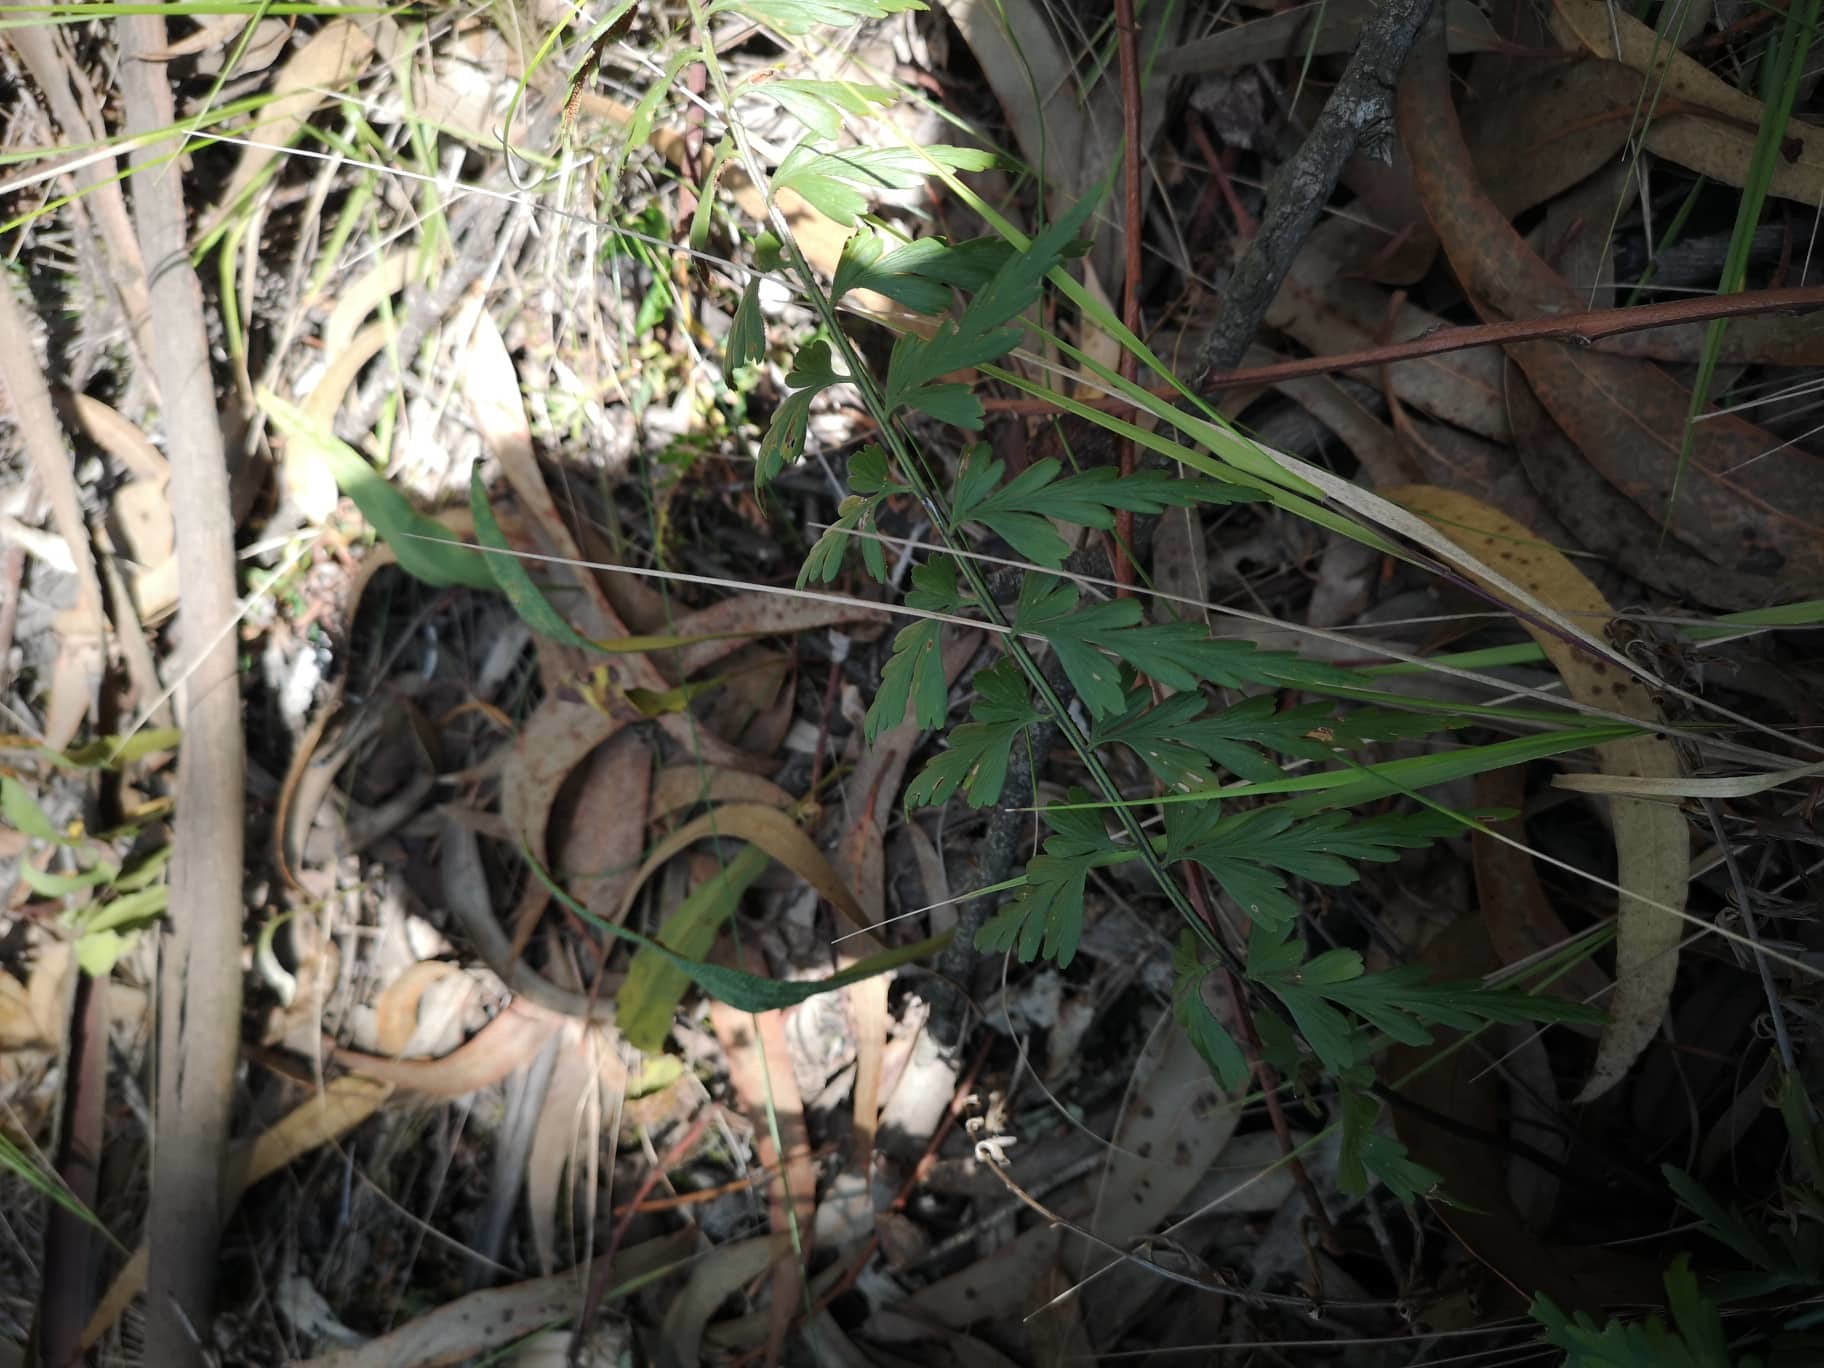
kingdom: Plantae
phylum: Tracheophyta
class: Polypodiopsida
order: Polypodiales
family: Aspleniaceae
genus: Asplenium
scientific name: Asplenium praemorsum
